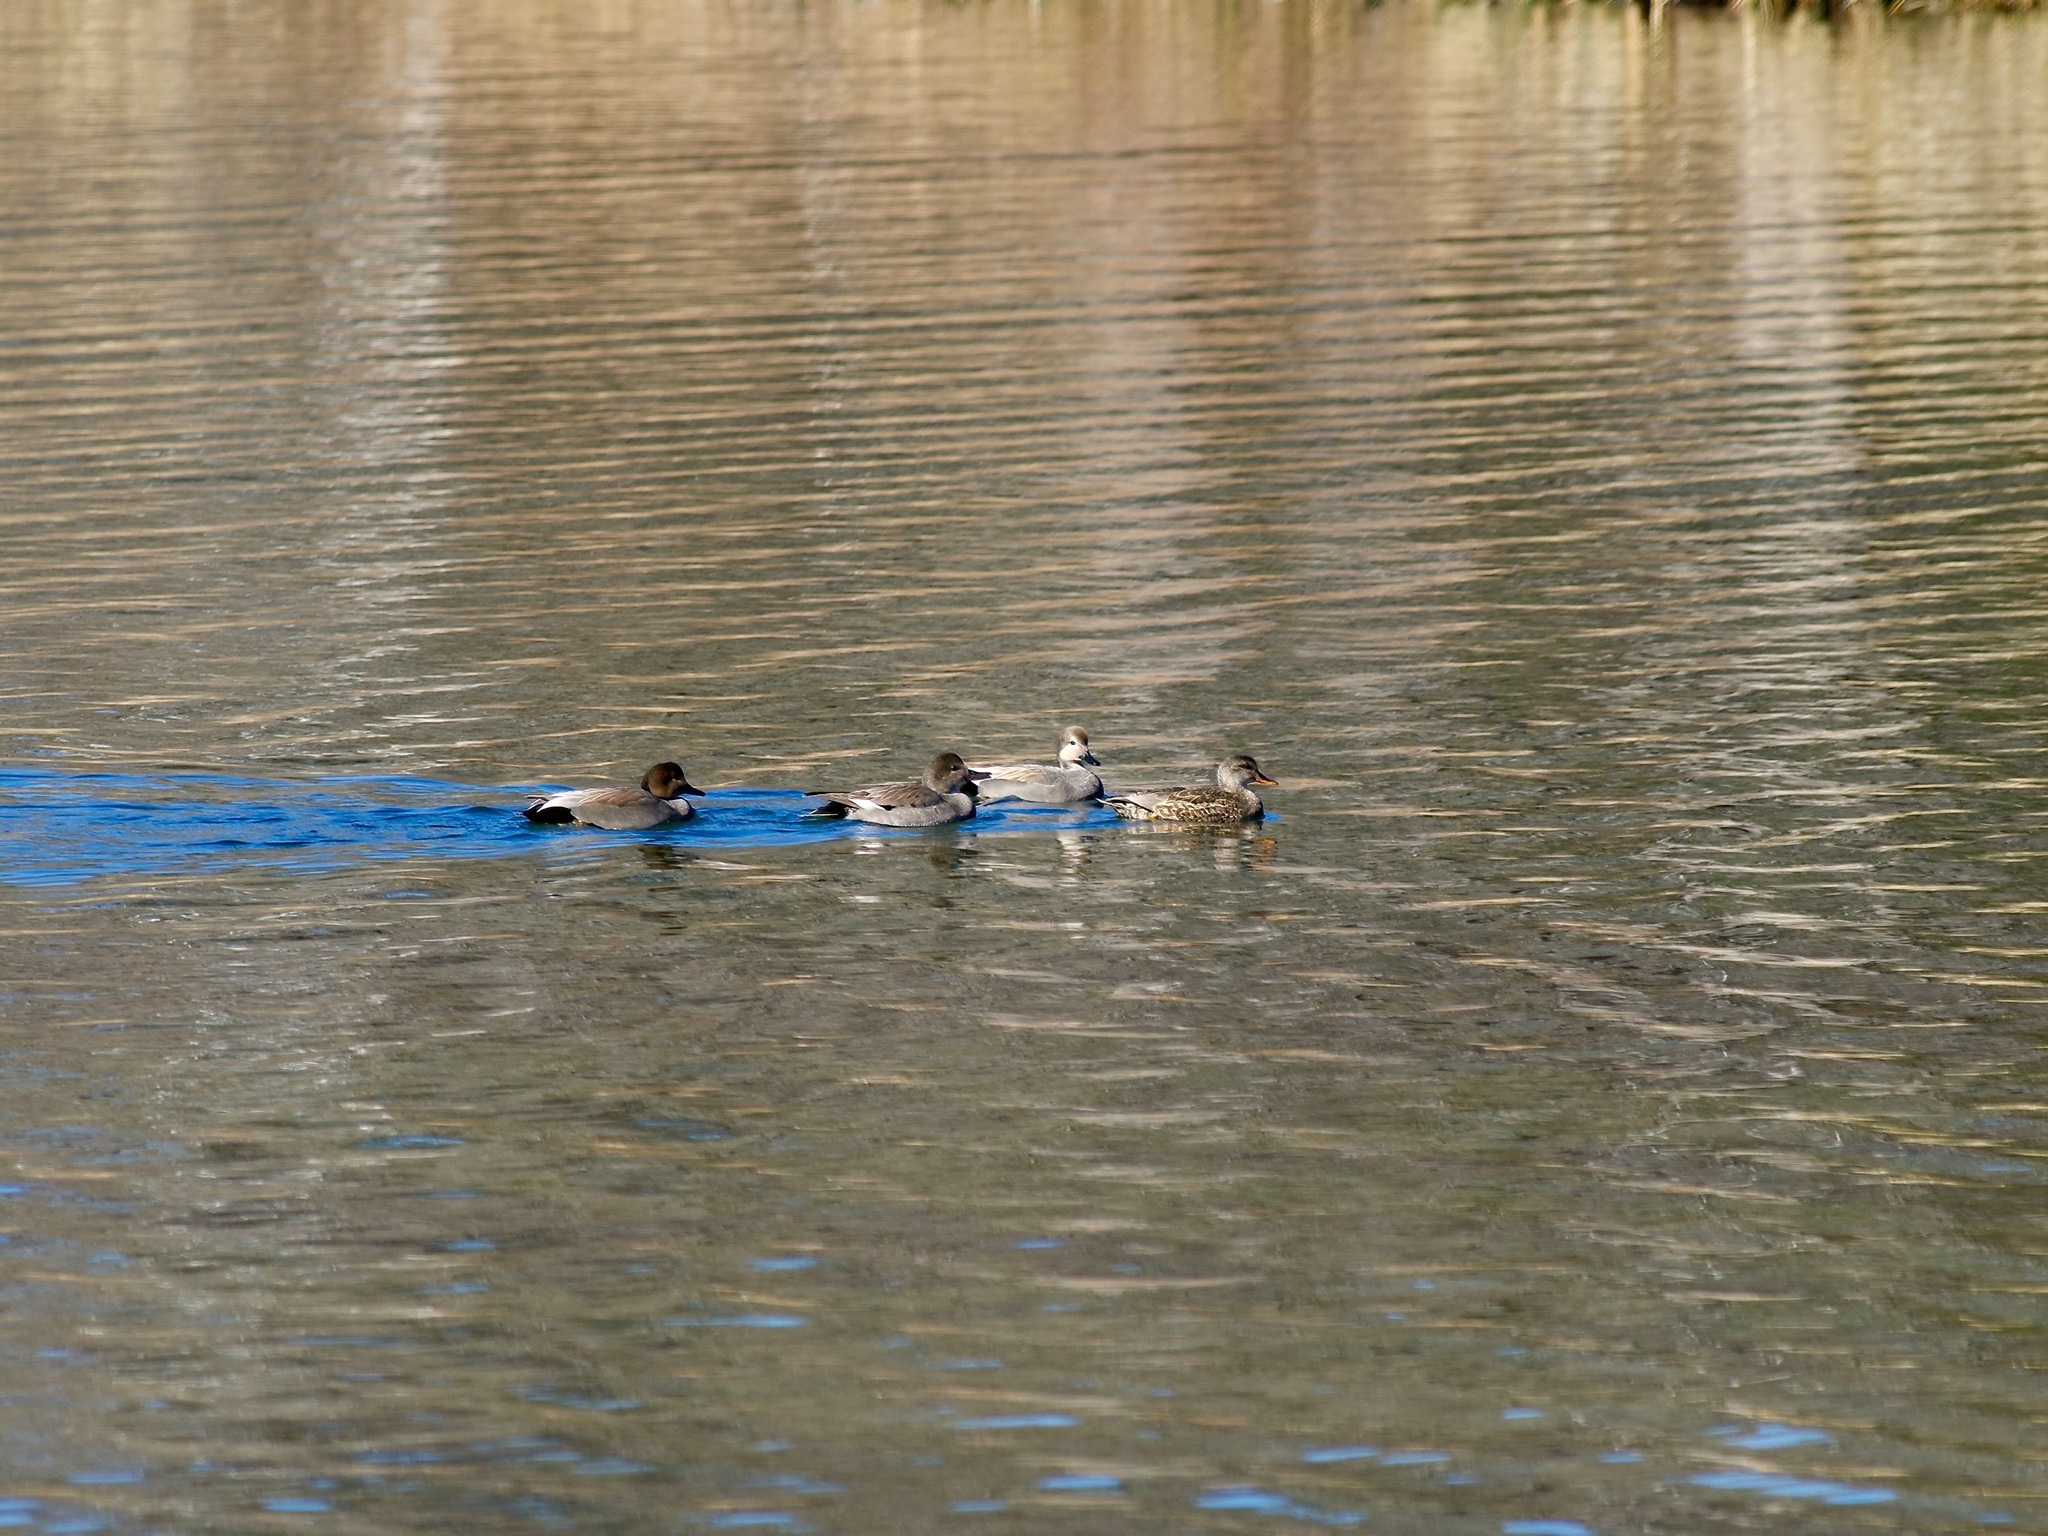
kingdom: Animalia
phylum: Chordata
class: Aves
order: Anseriformes
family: Anatidae
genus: Mareca
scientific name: Mareca strepera
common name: Gadwall
